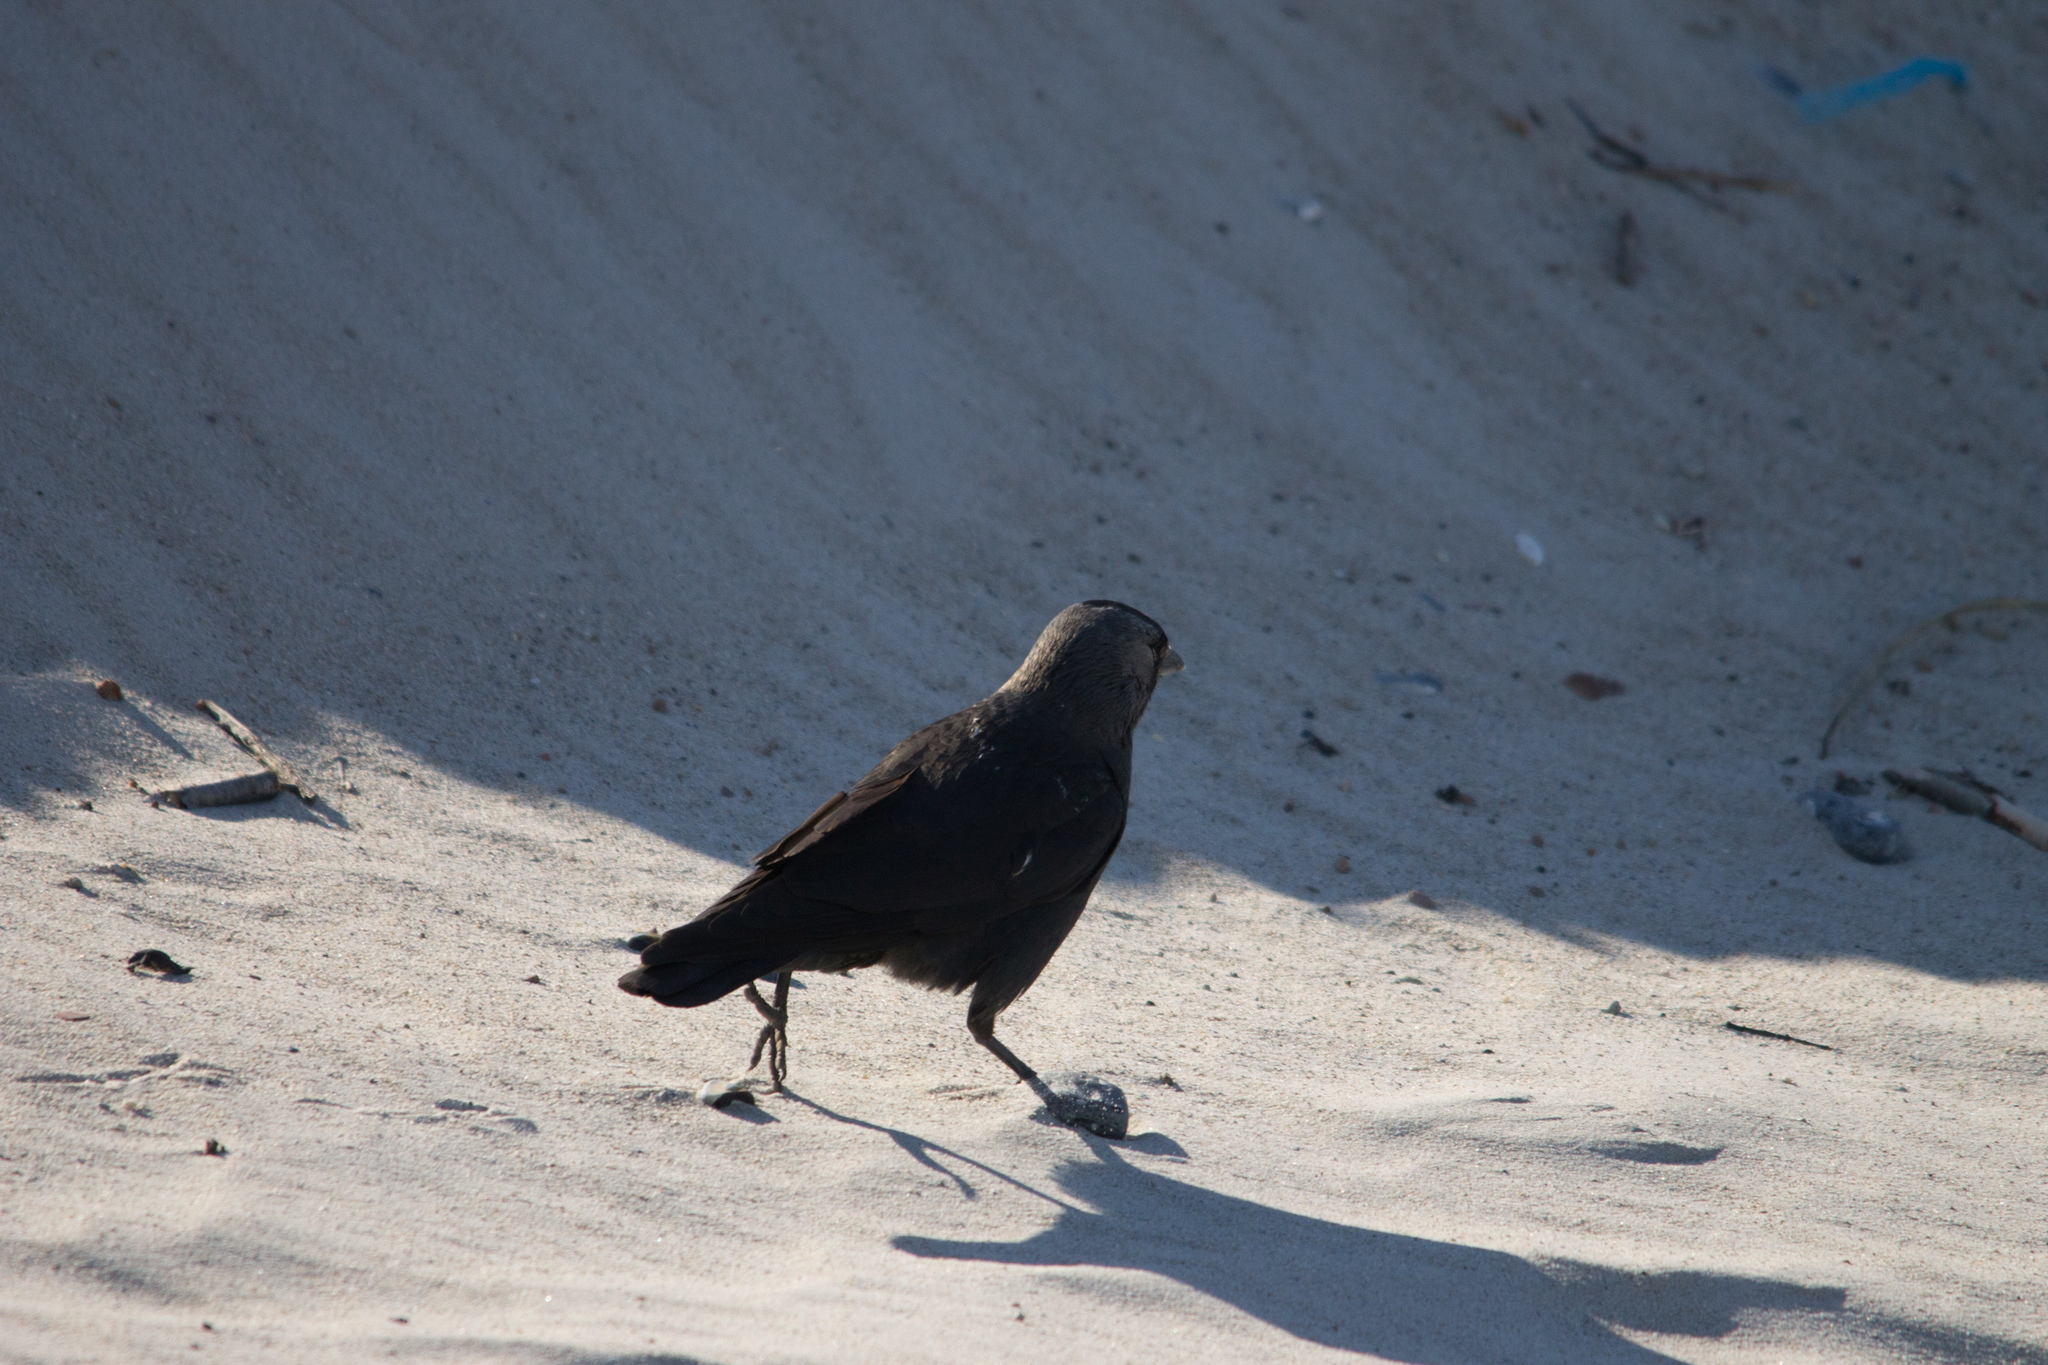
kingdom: Animalia
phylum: Chordata
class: Aves
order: Passeriformes
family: Corvidae
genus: Coloeus
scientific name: Coloeus monedula
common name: Western jackdaw
